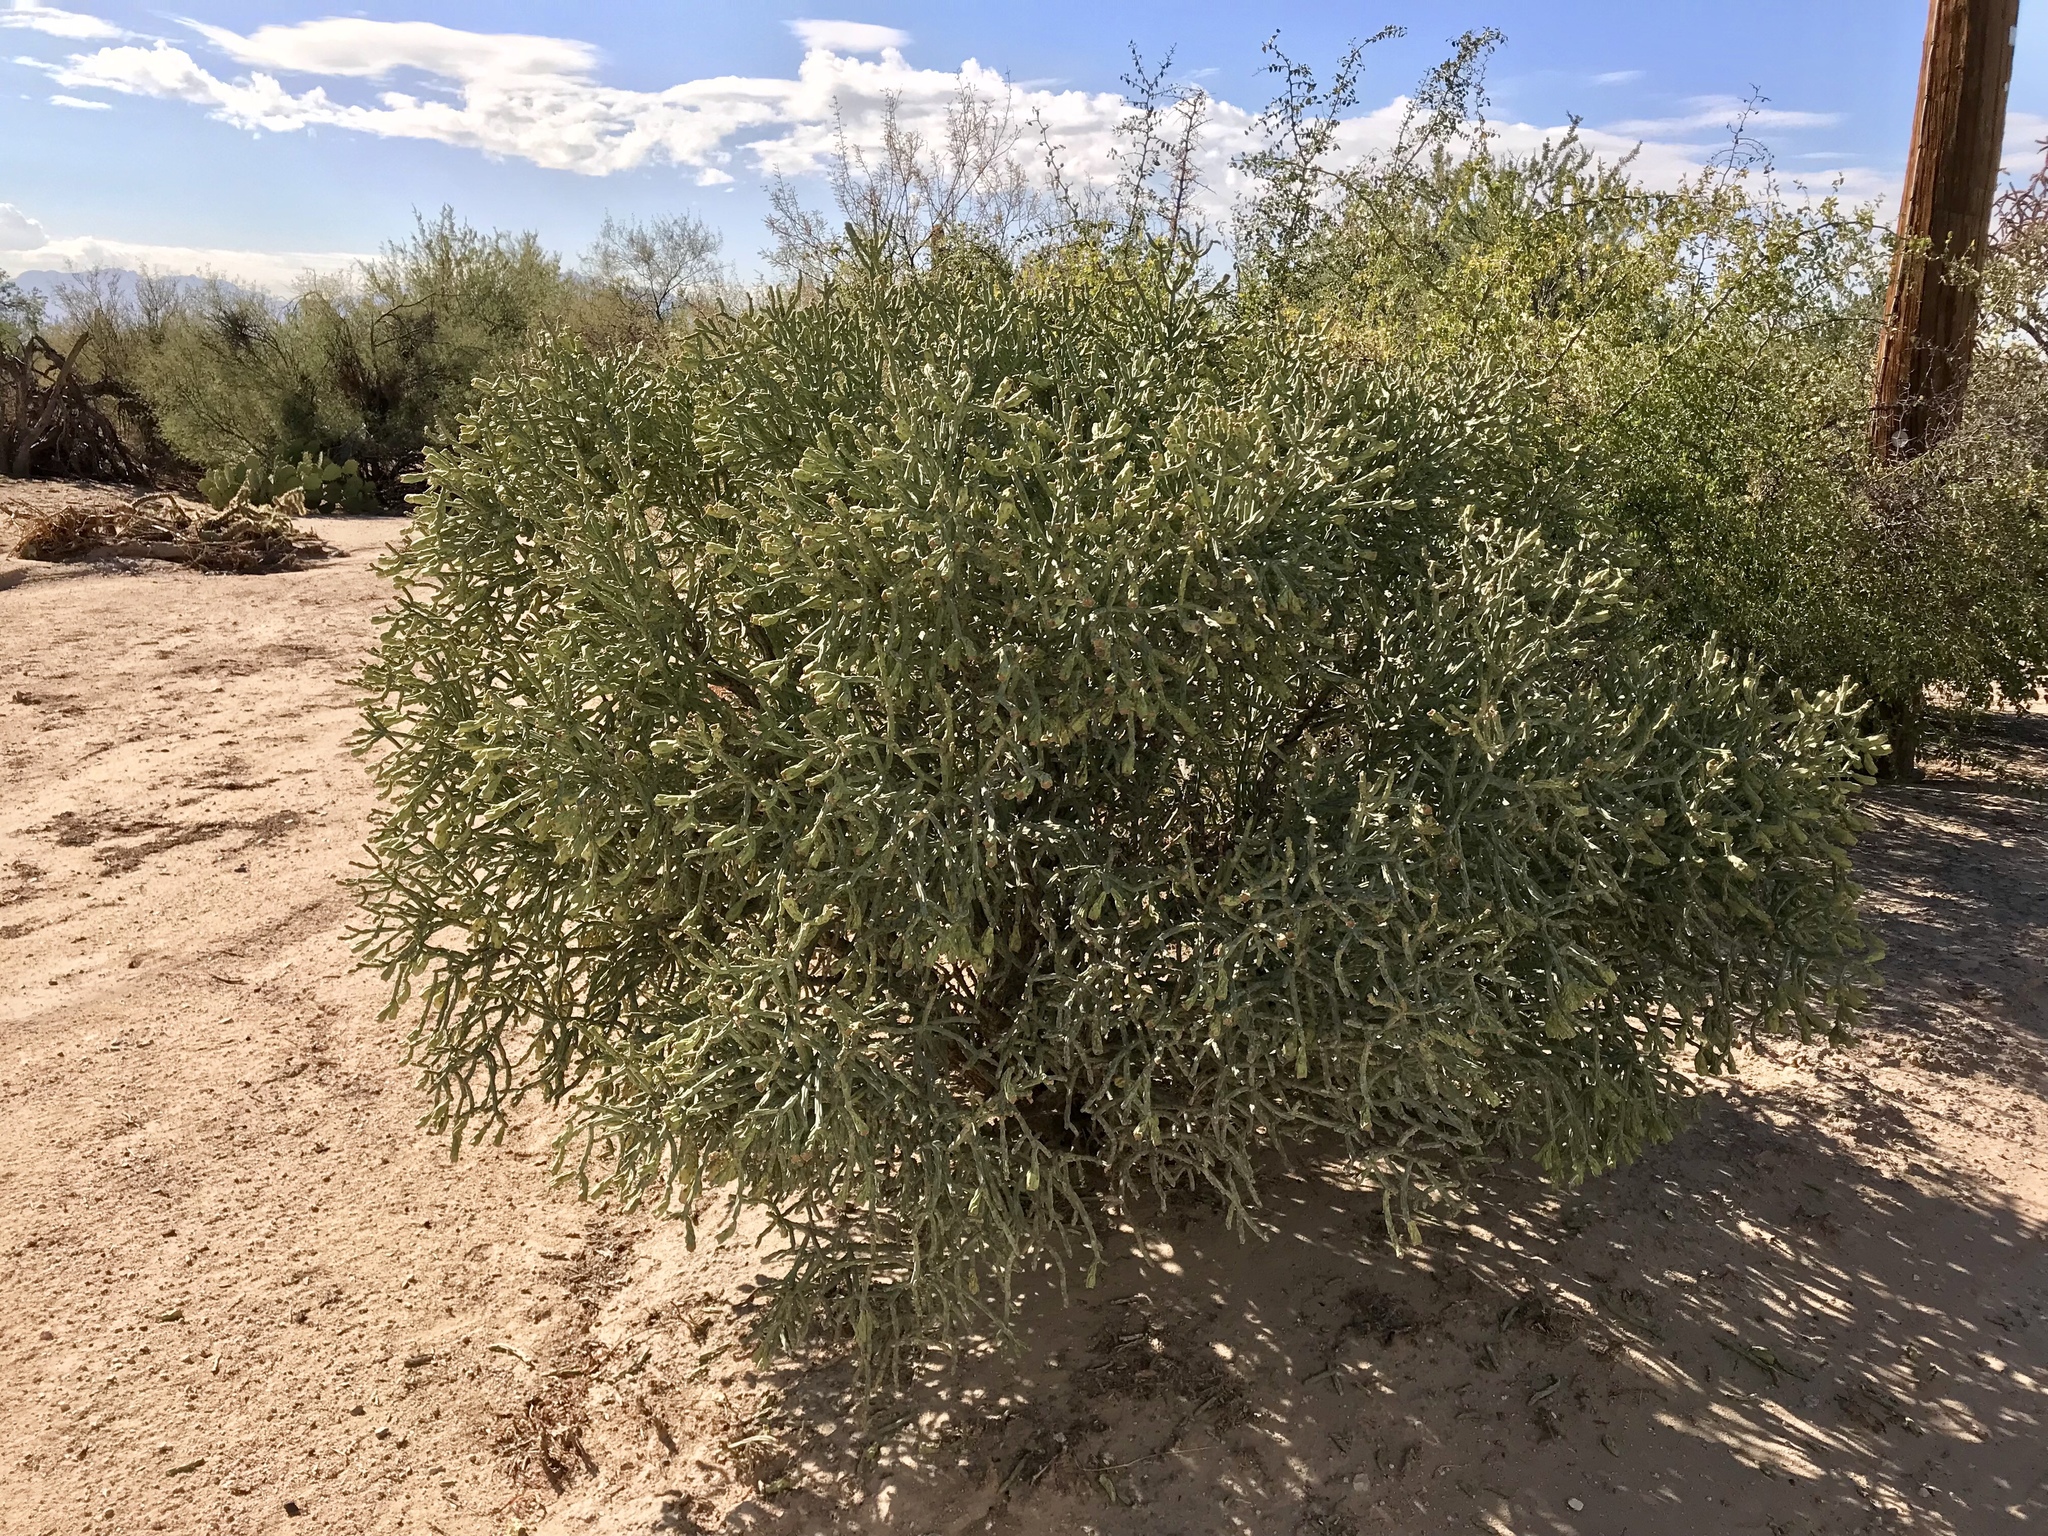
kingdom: Plantae
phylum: Tracheophyta
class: Magnoliopsida
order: Caryophyllales
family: Cactaceae
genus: Cylindropuntia
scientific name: Cylindropuntia arbuscula
